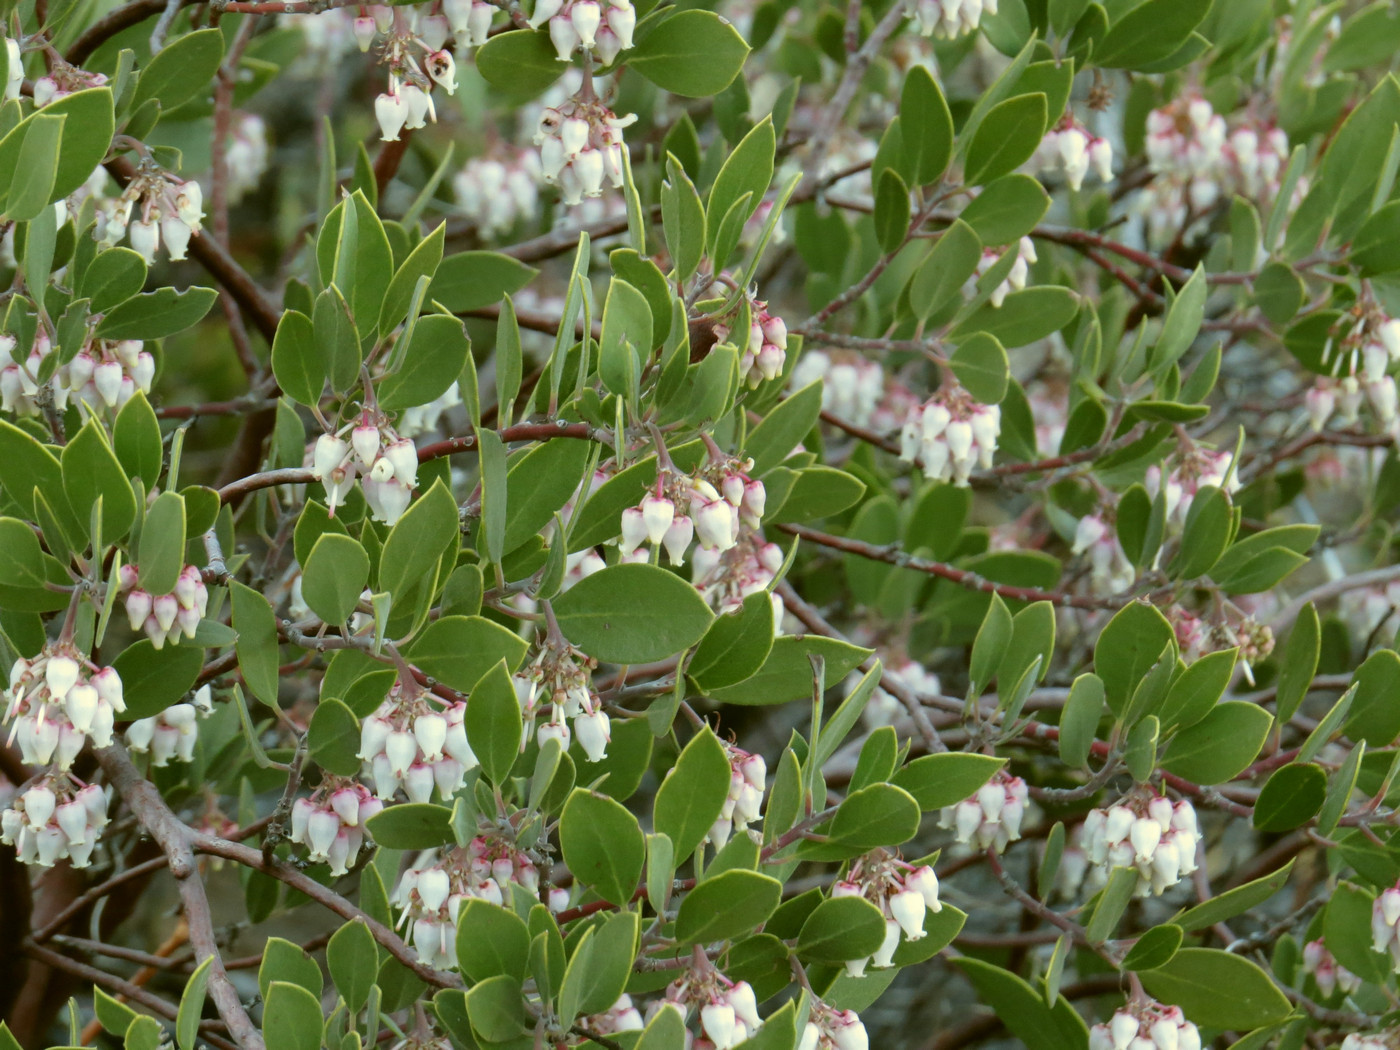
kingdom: Plantae
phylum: Tracheophyta
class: Magnoliopsida
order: Ericales
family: Ericaceae
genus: Arctostaphylos
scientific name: Arctostaphylos pungens
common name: Mexican manzanita
